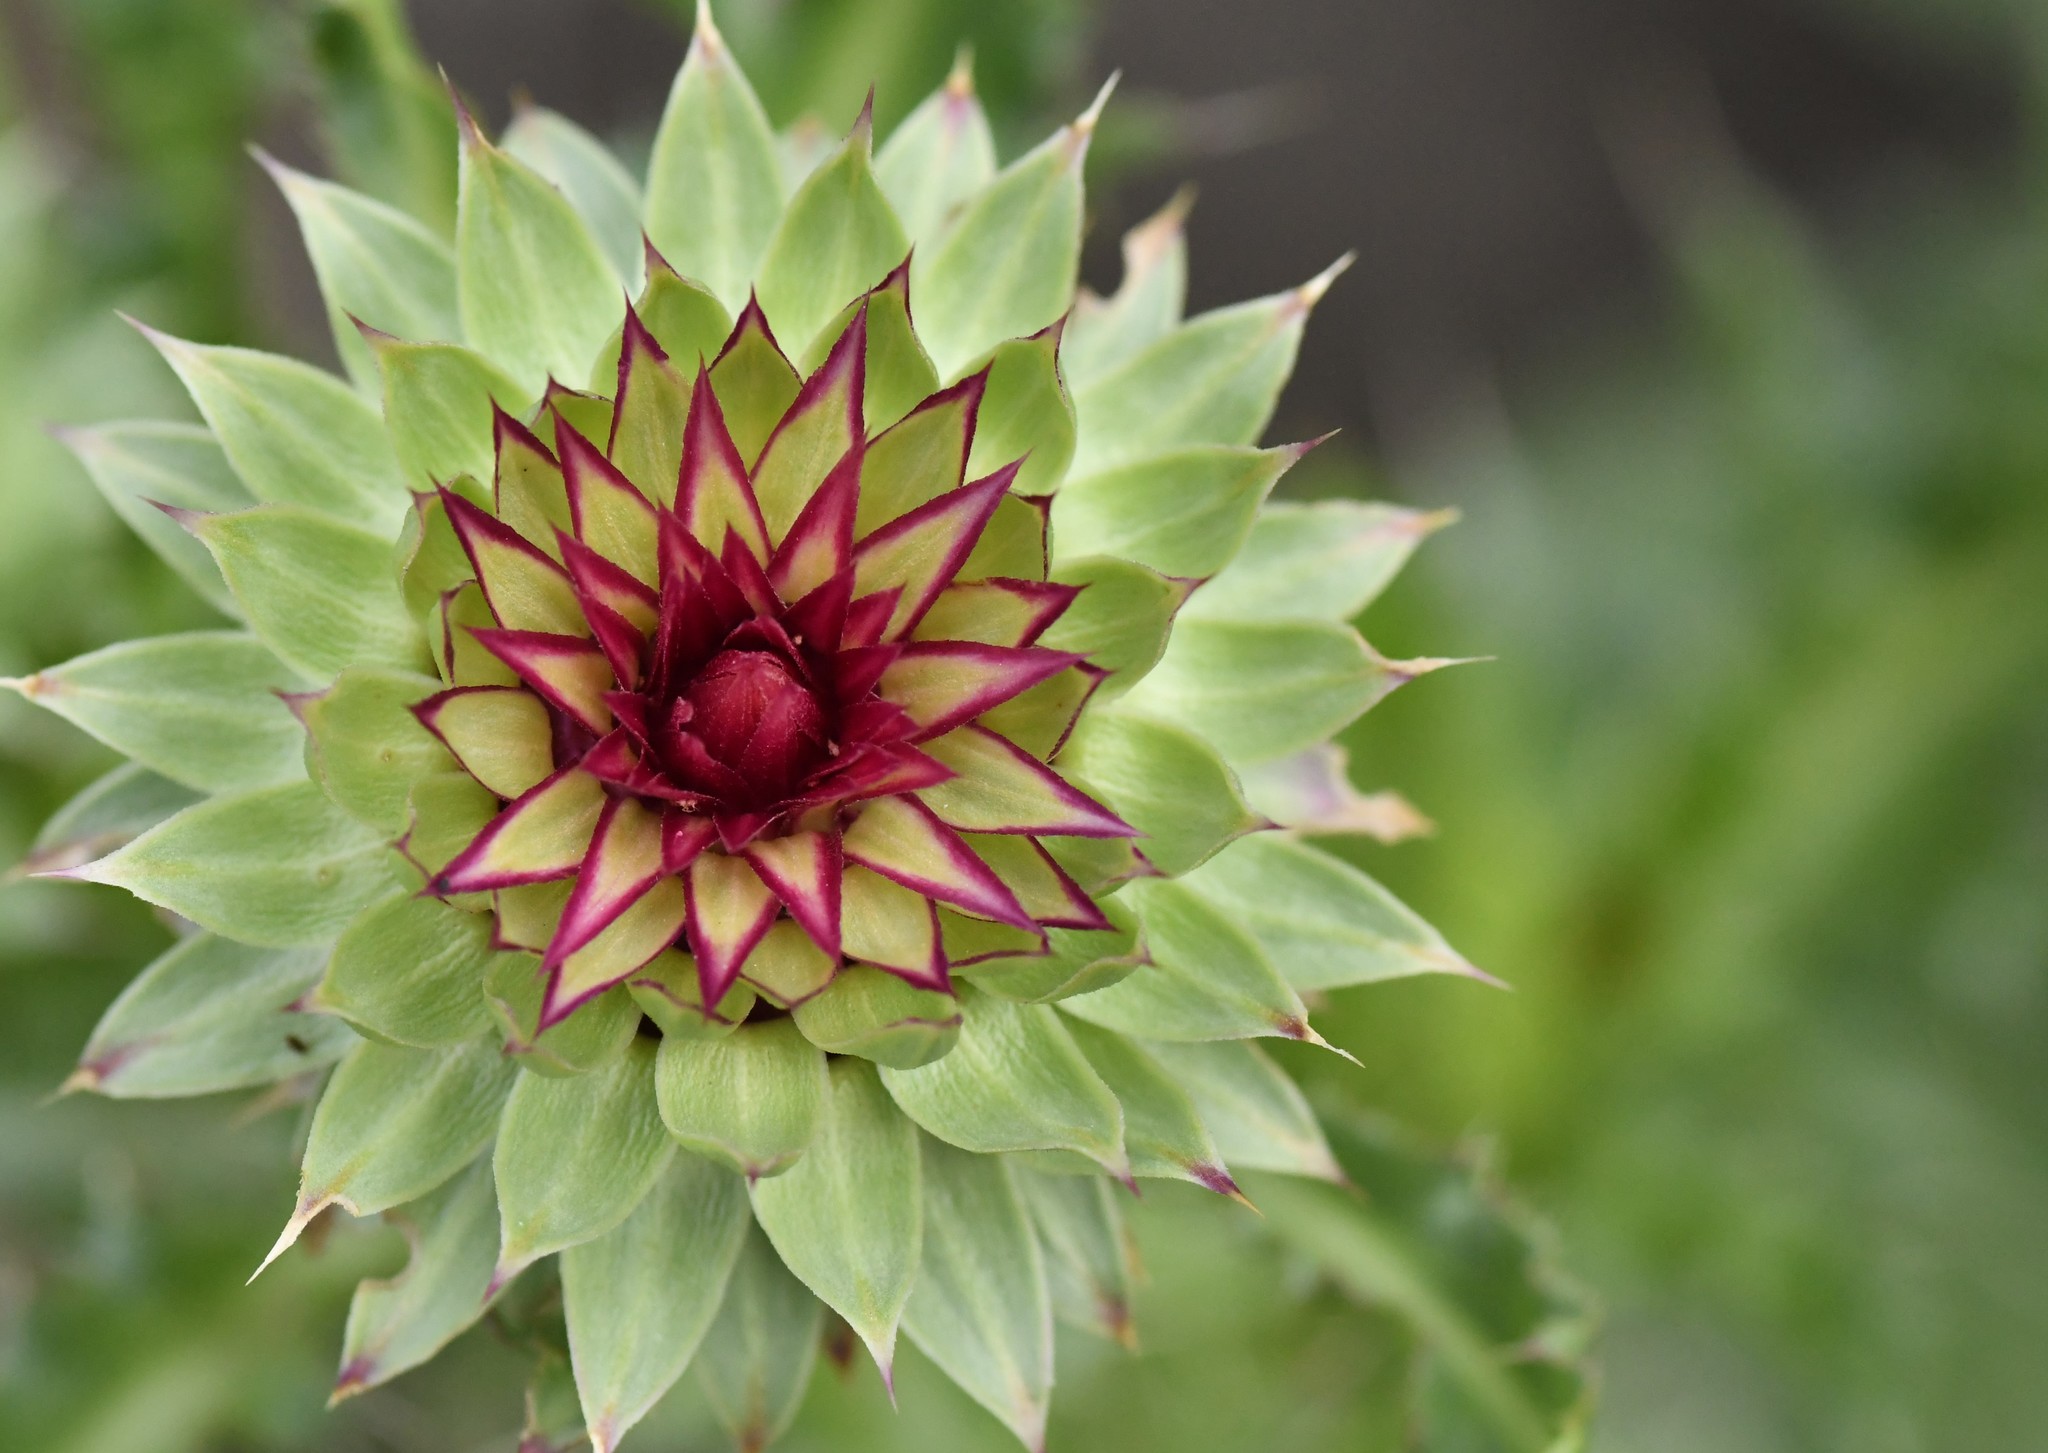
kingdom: Plantae
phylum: Tracheophyta
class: Magnoliopsida
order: Asterales
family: Asteraceae
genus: Carduus
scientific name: Carduus nutans
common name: Musk thistle
